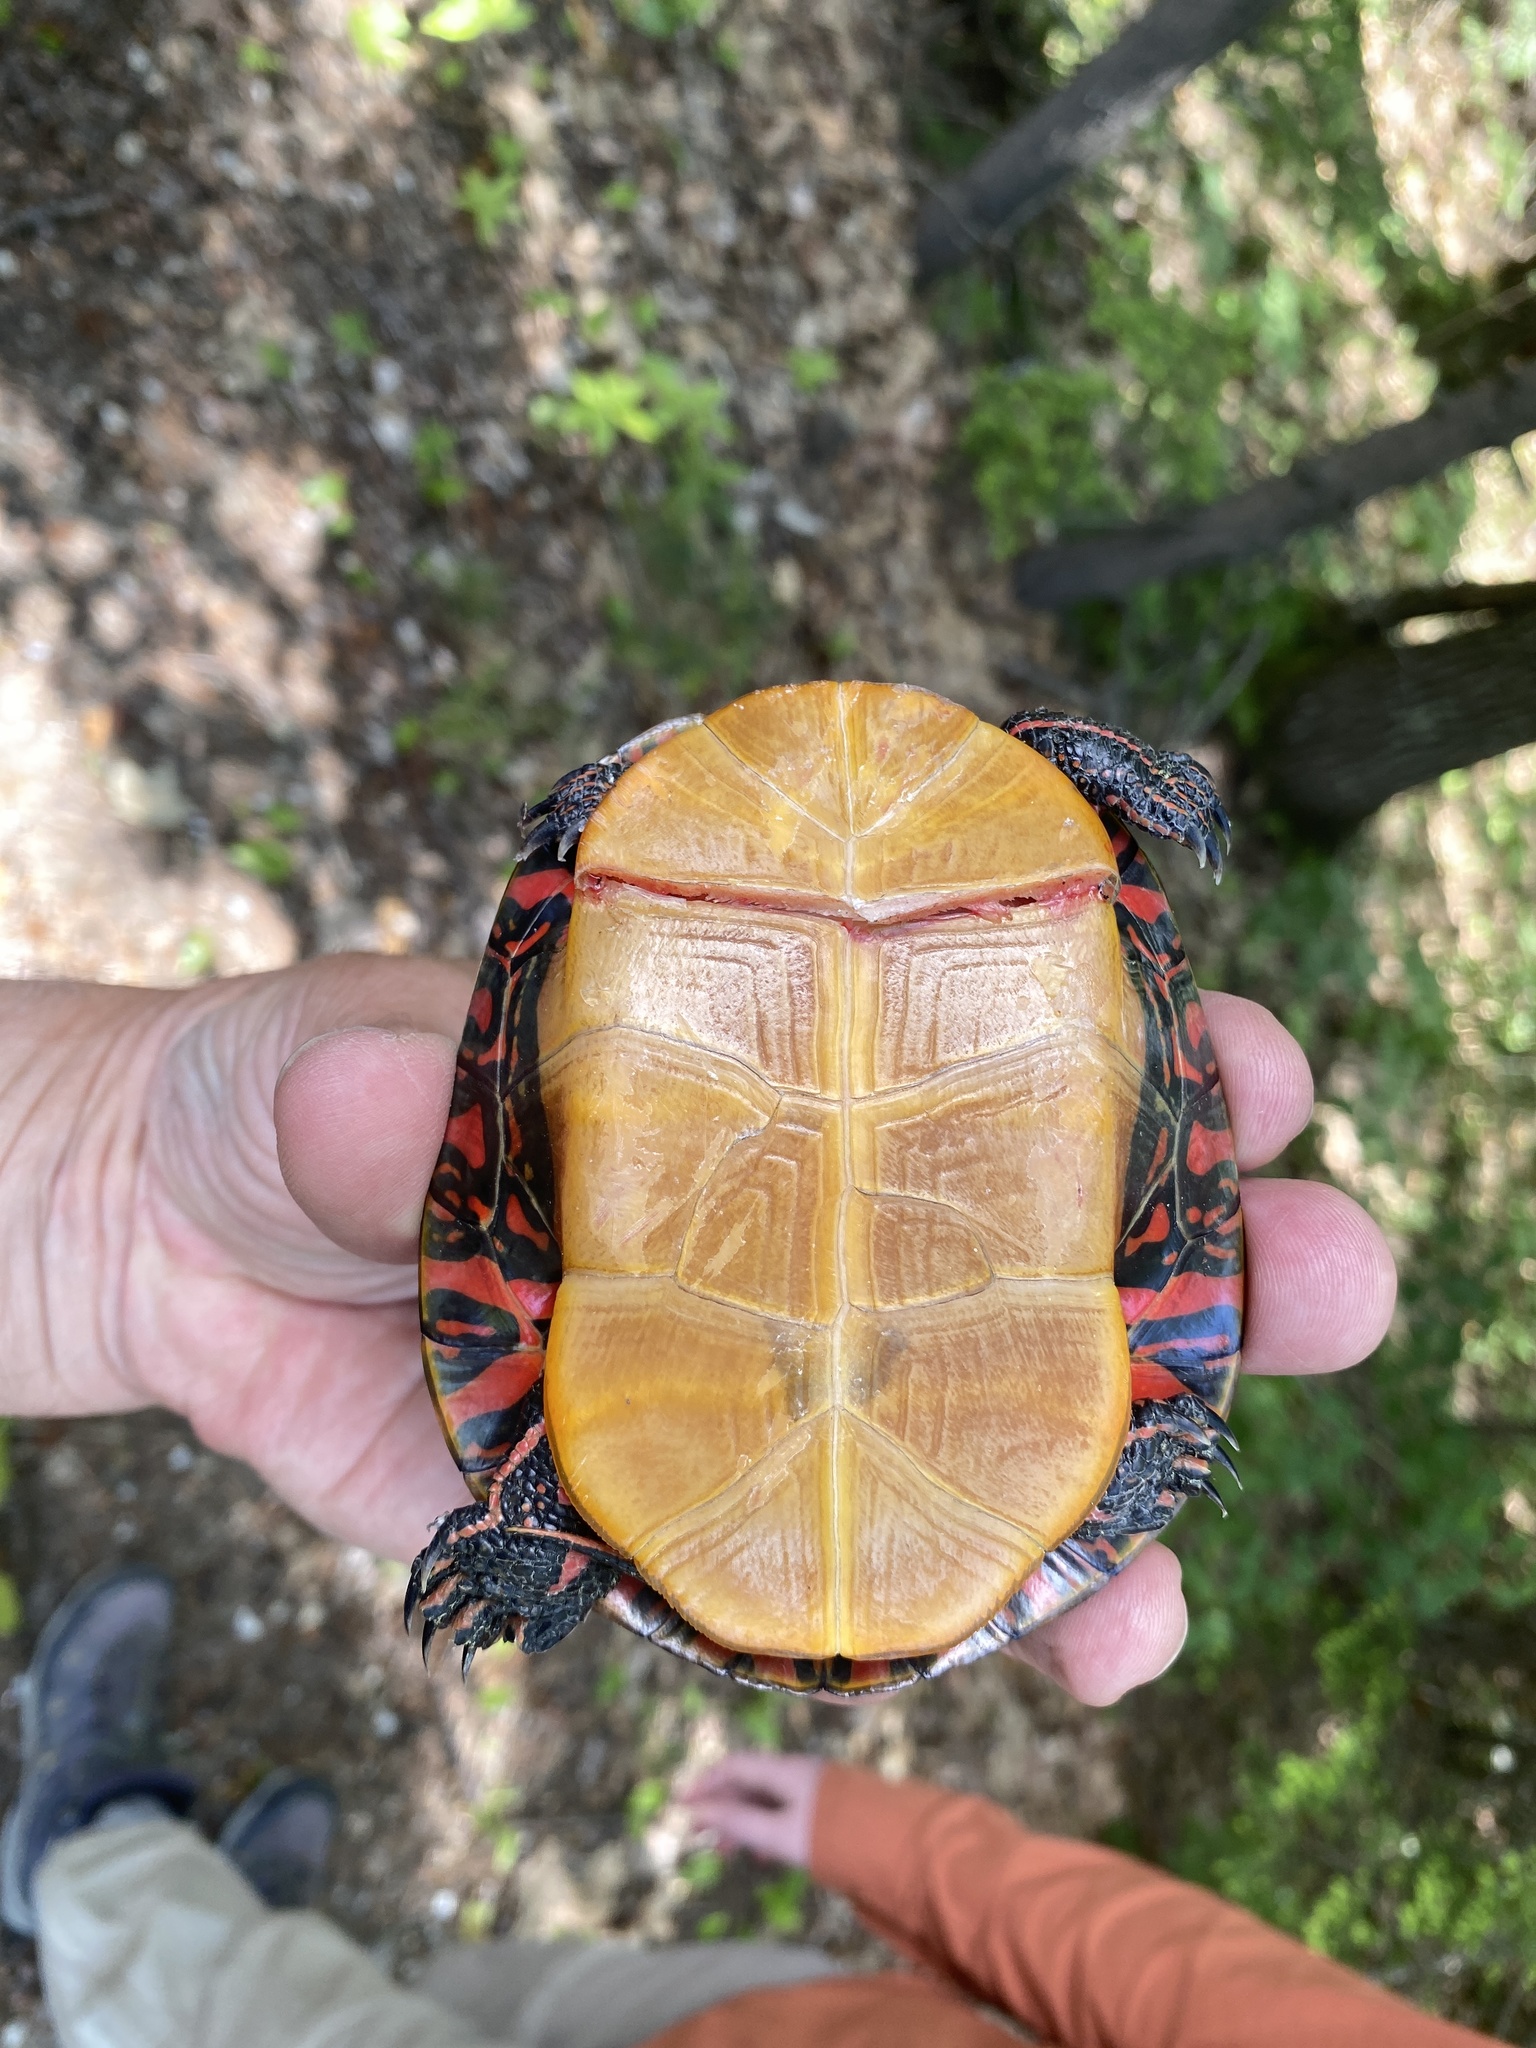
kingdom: Animalia
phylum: Chordata
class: Testudines
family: Emydidae
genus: Chrysemys
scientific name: Chrysemys picta
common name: Painted turtle
